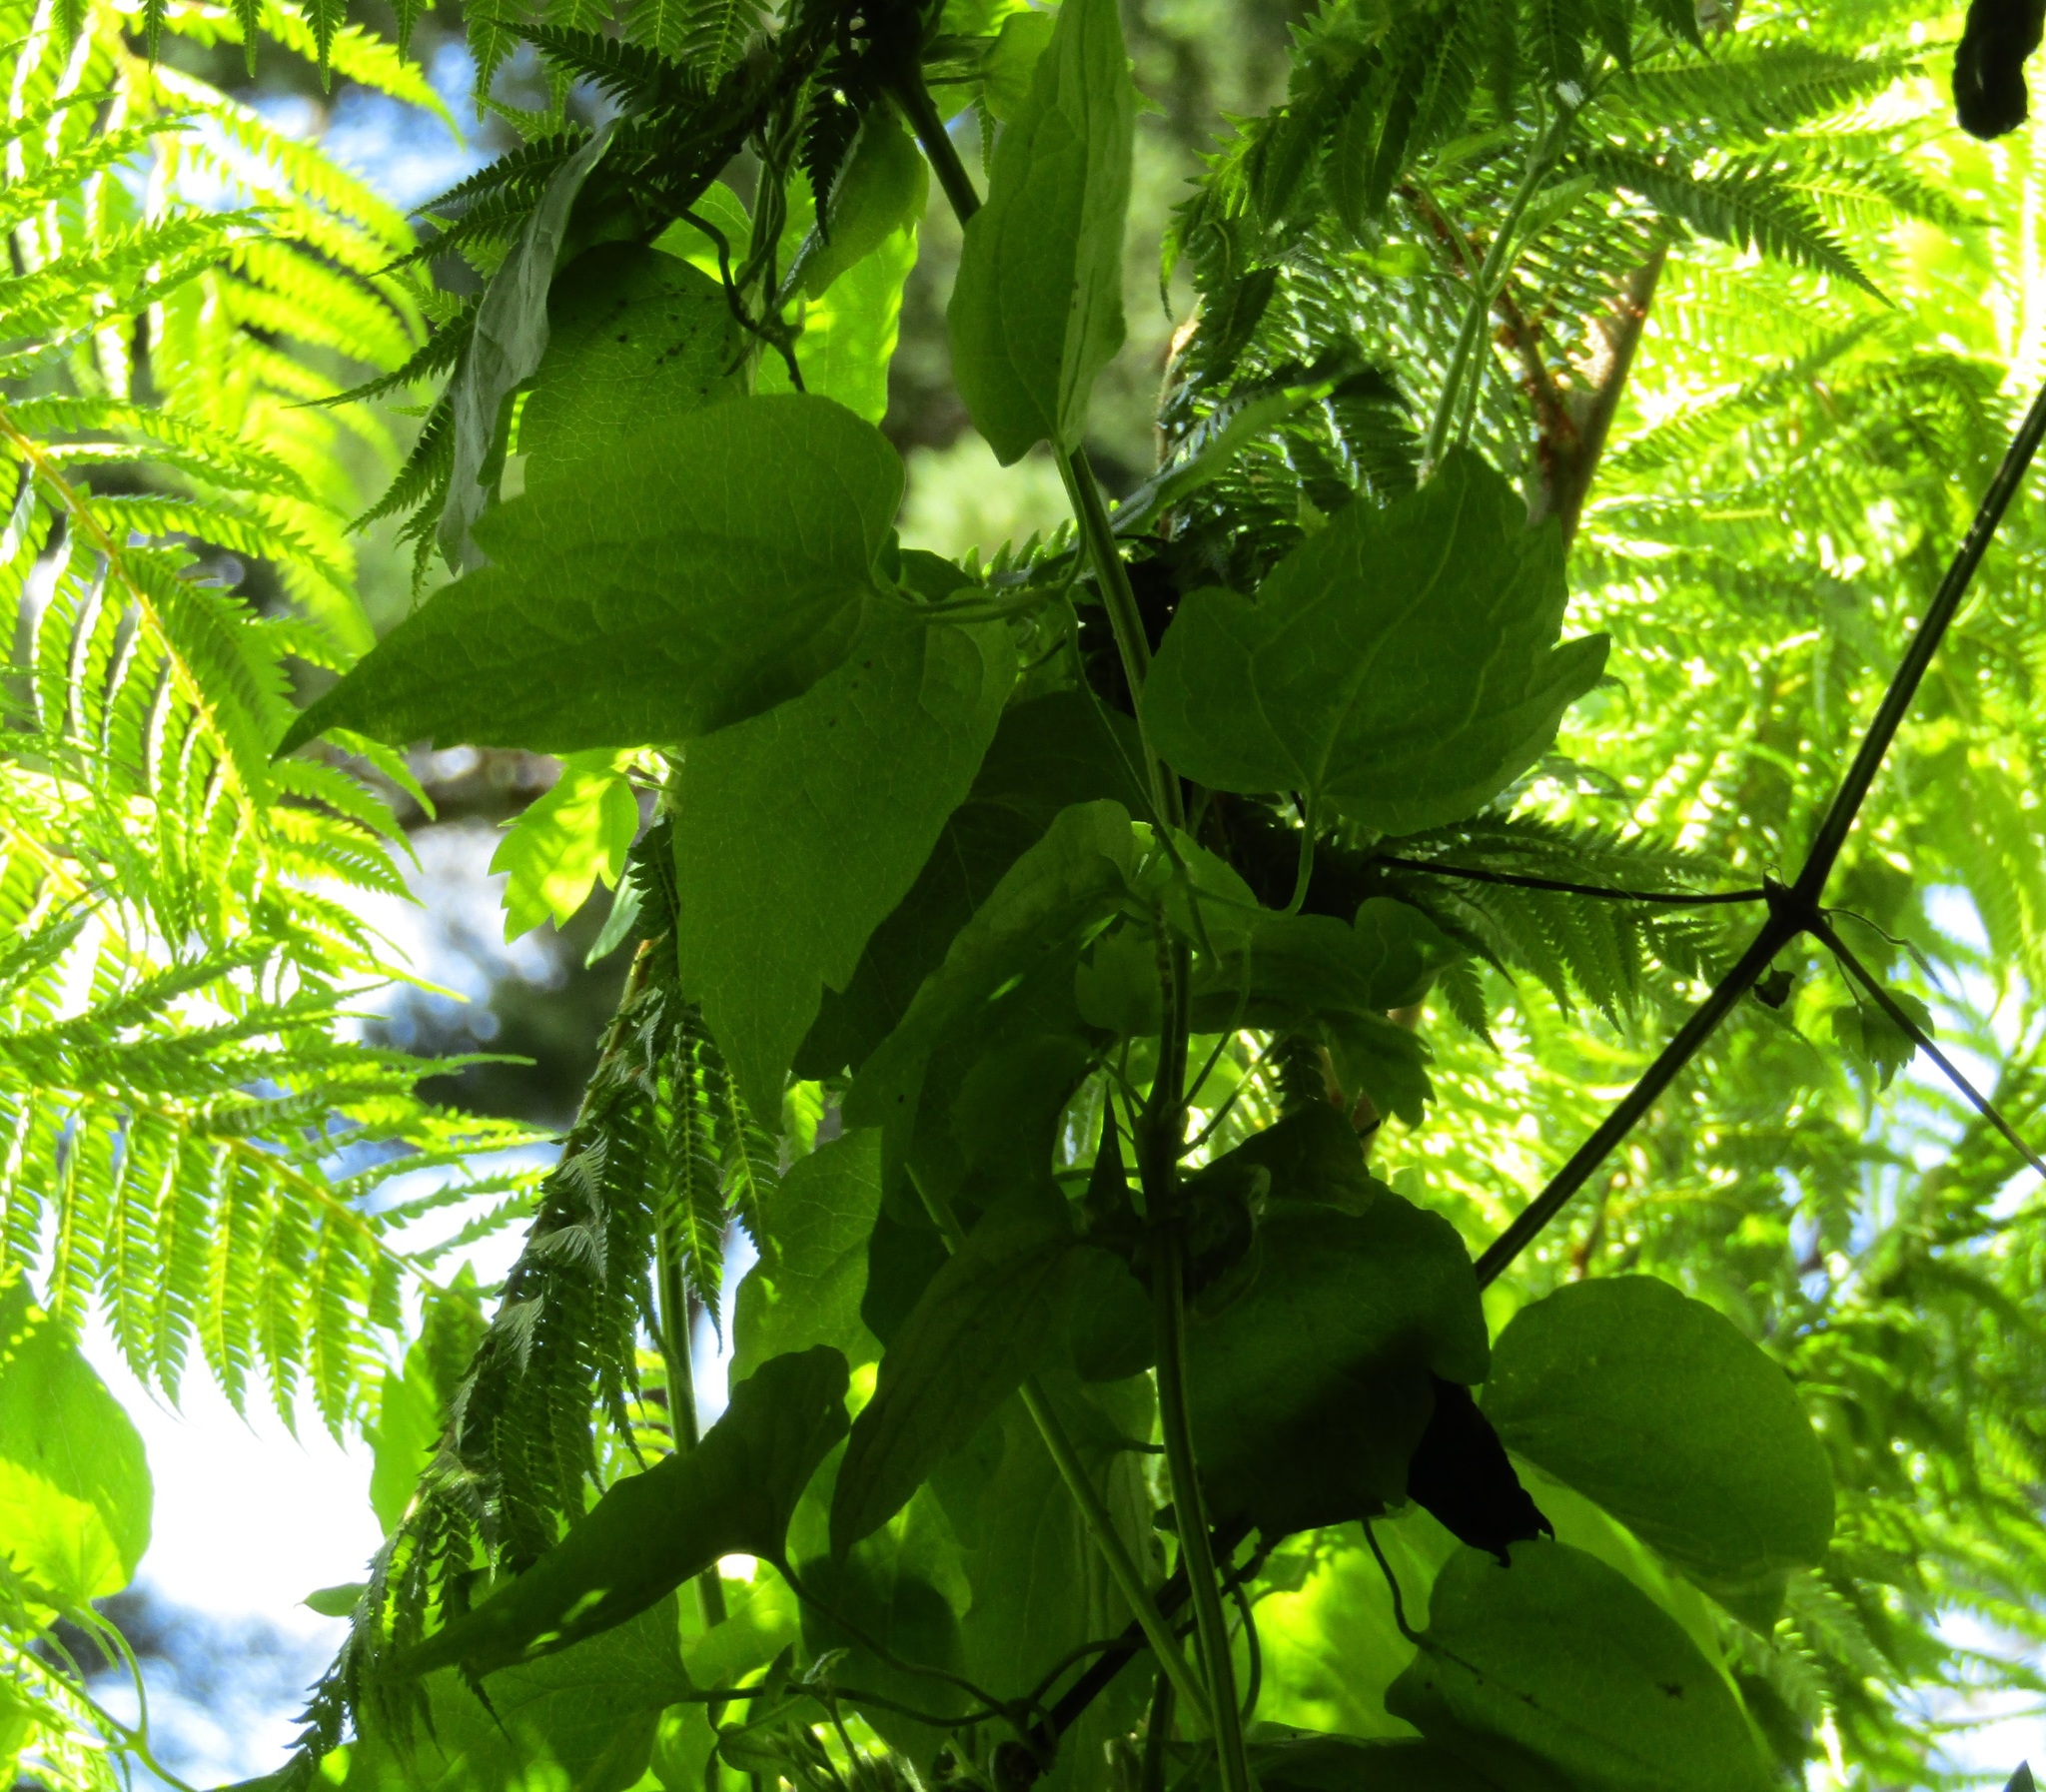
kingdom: Plantae
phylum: Tracheophyta
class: Magnoliopsida
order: Ranunculales
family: Ranunculaceae
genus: Clematis
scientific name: Clematis vitalba
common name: Evergreen clematis
